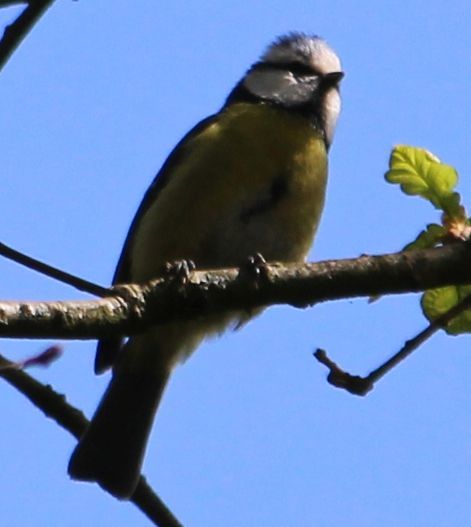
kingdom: Animalia
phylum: Chordata
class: Aves
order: Passeriformes
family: Paridae
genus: Cyanistes
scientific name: Cyanistes caeruleus
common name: Eurasian blue tit
